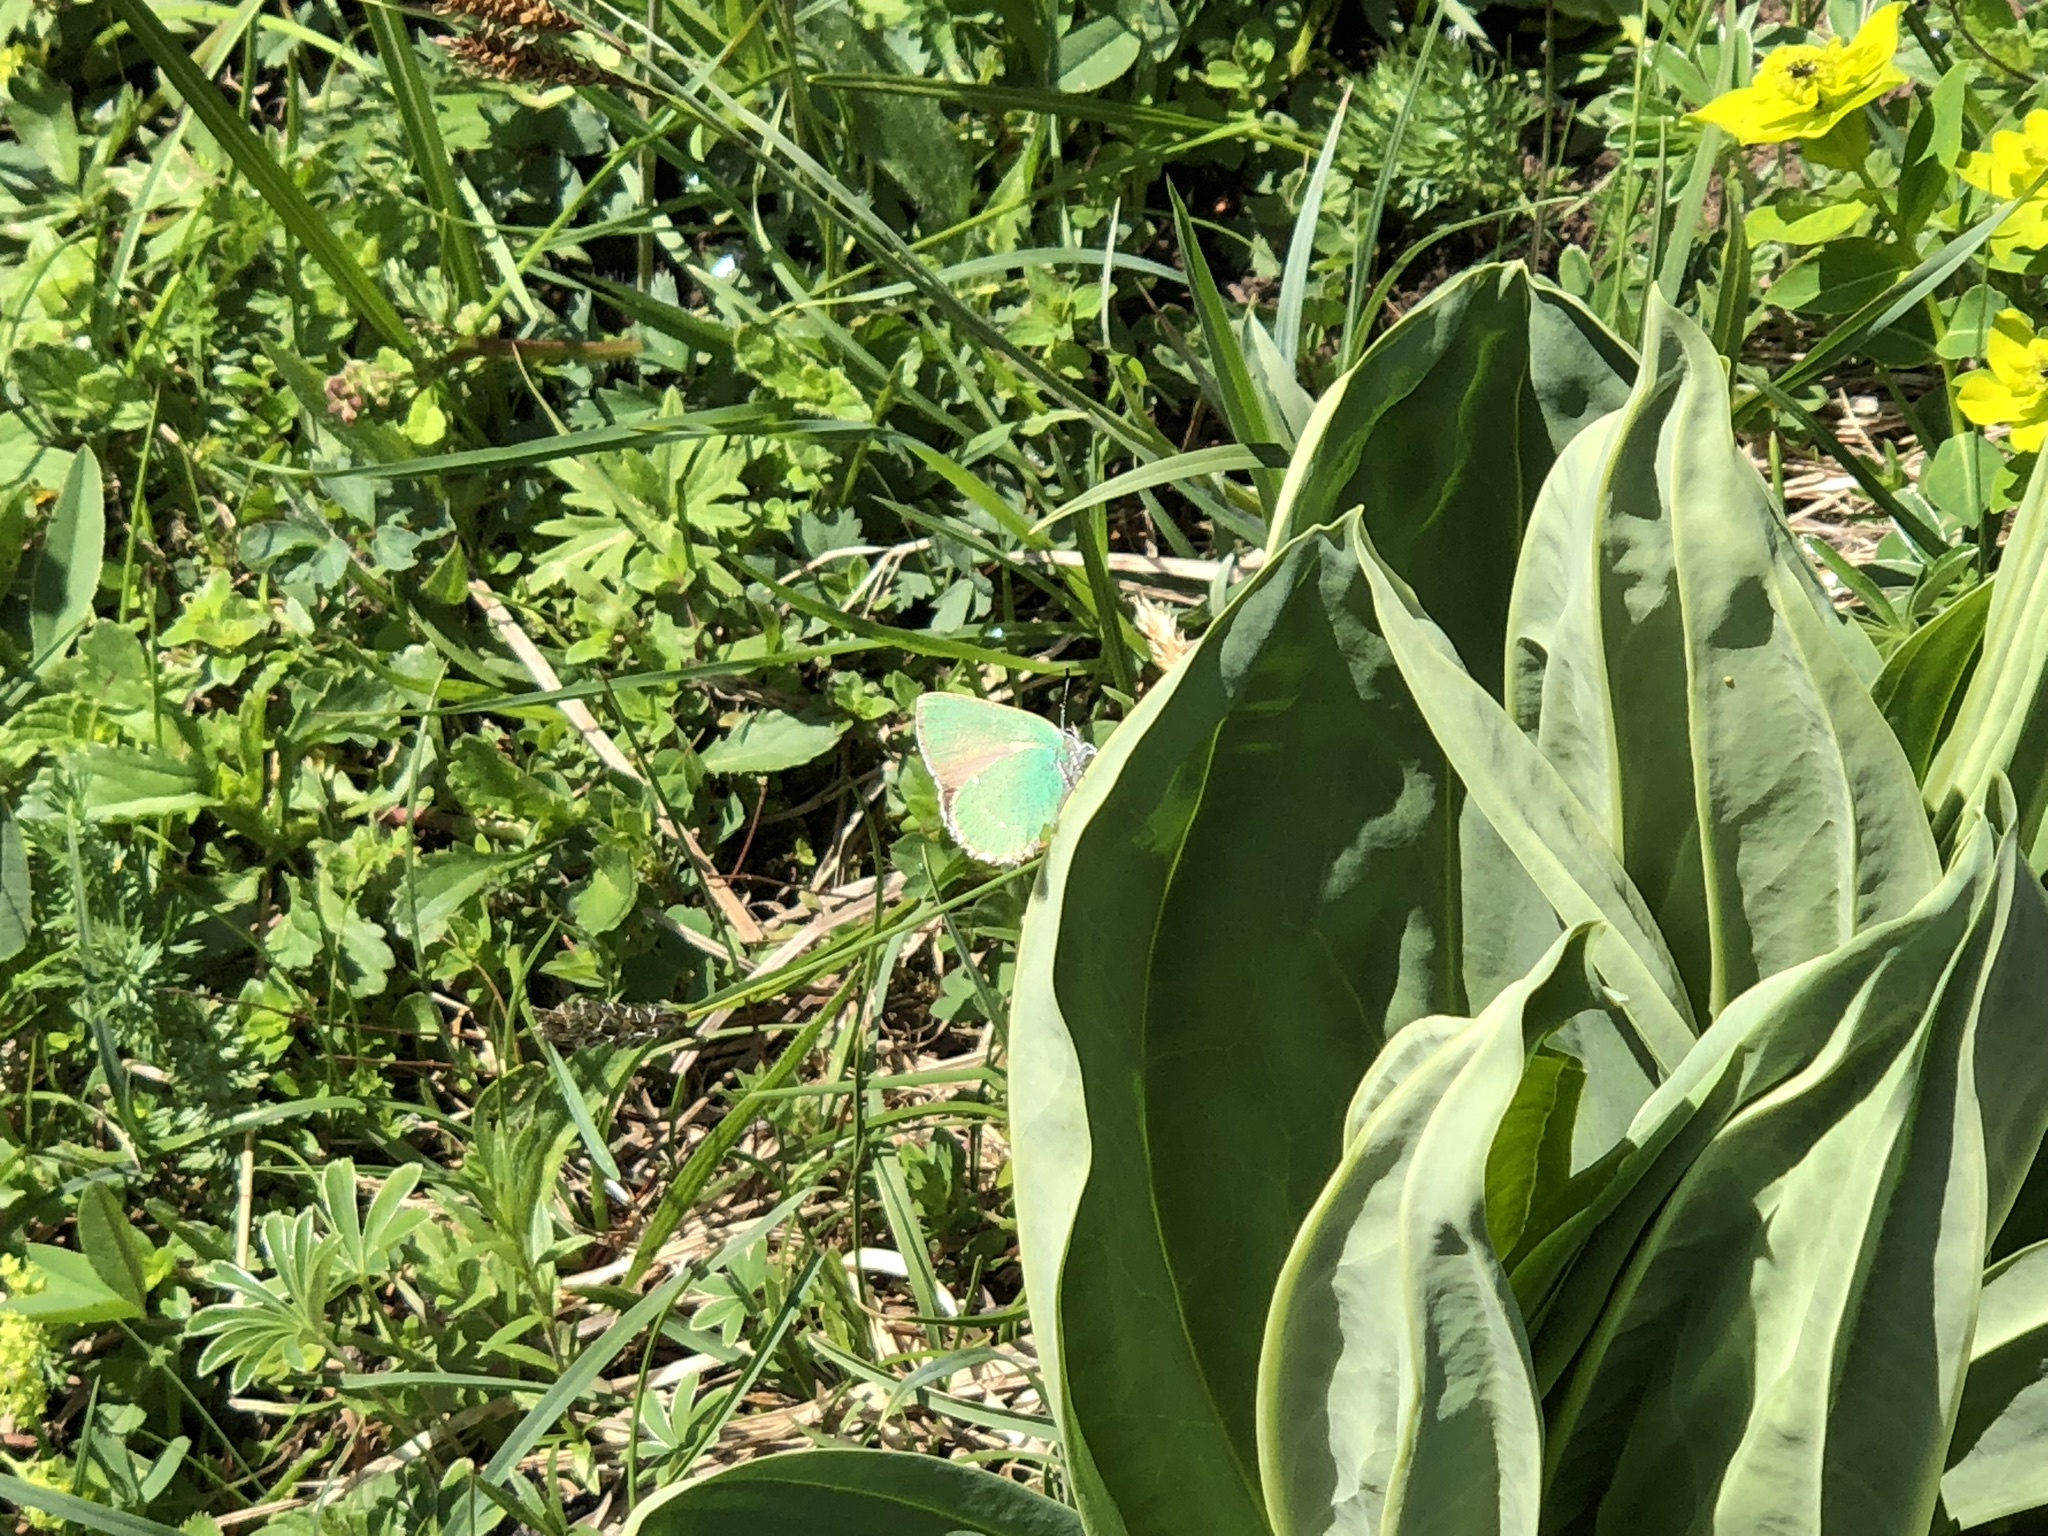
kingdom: Animalia
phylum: Arthropoda
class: Insecta
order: Lepidoptera
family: Lycaenidae
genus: Callophrys
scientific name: Callophrys rubi
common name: Green hairstreak
